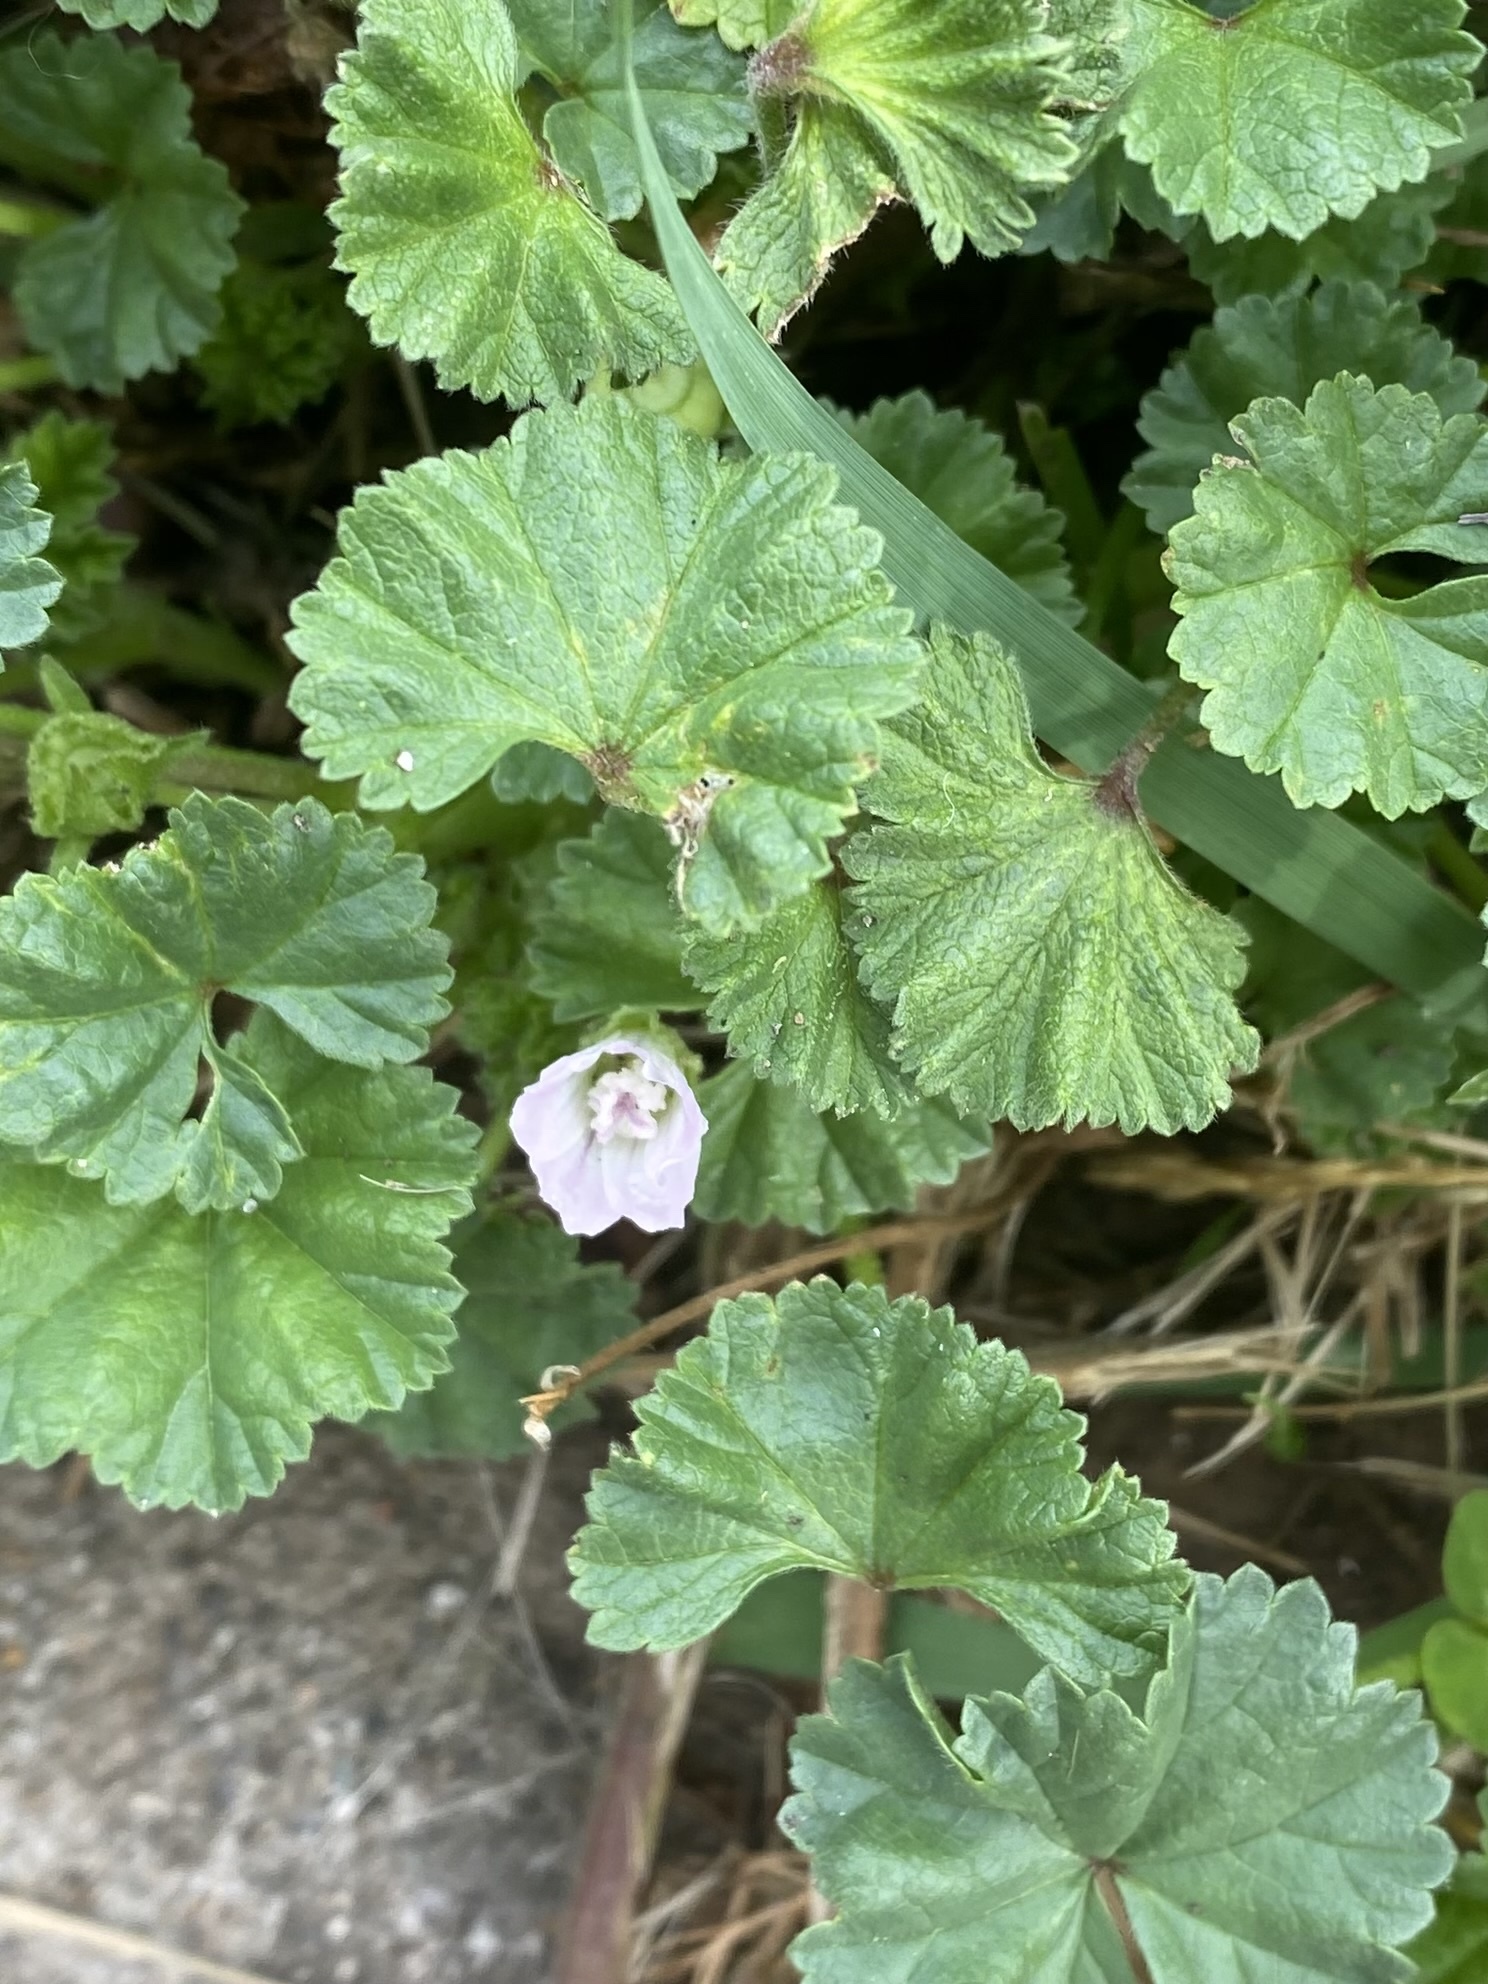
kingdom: Plantae
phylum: Tracheophyta
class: Magnoliopsida
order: Malvales
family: Malvaceae
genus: Malva
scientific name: Malva neglecta
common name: Common mallow
